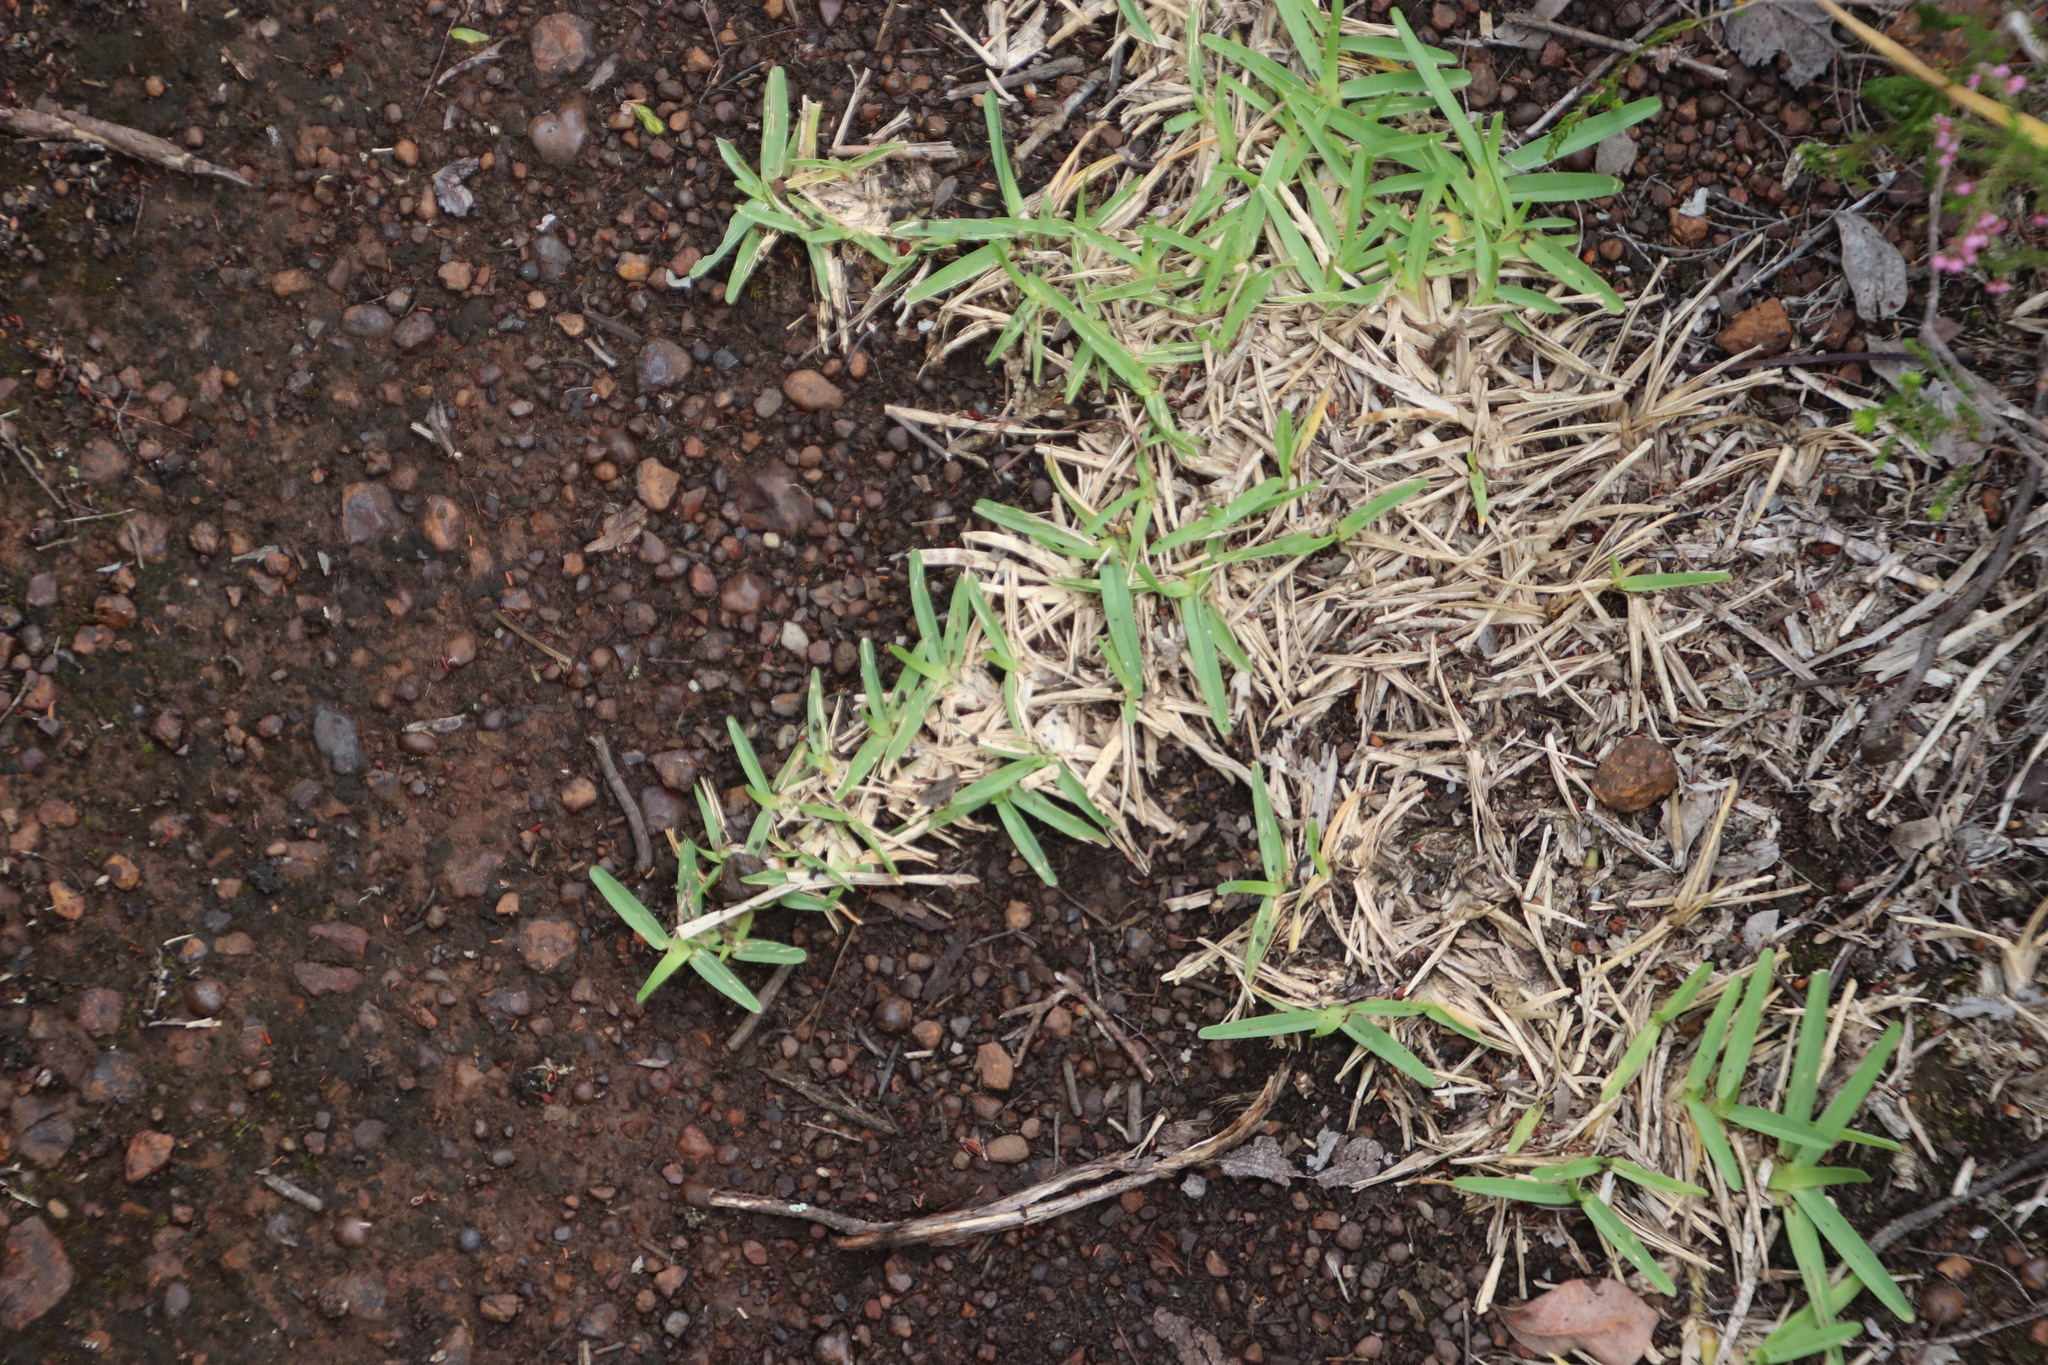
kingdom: Plantae
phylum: Tracheophyta
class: Liliopsida
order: Poales
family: Poaceae
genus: Stenotaphrum
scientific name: Stenotaphrum secundatum
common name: St. augustine grass
